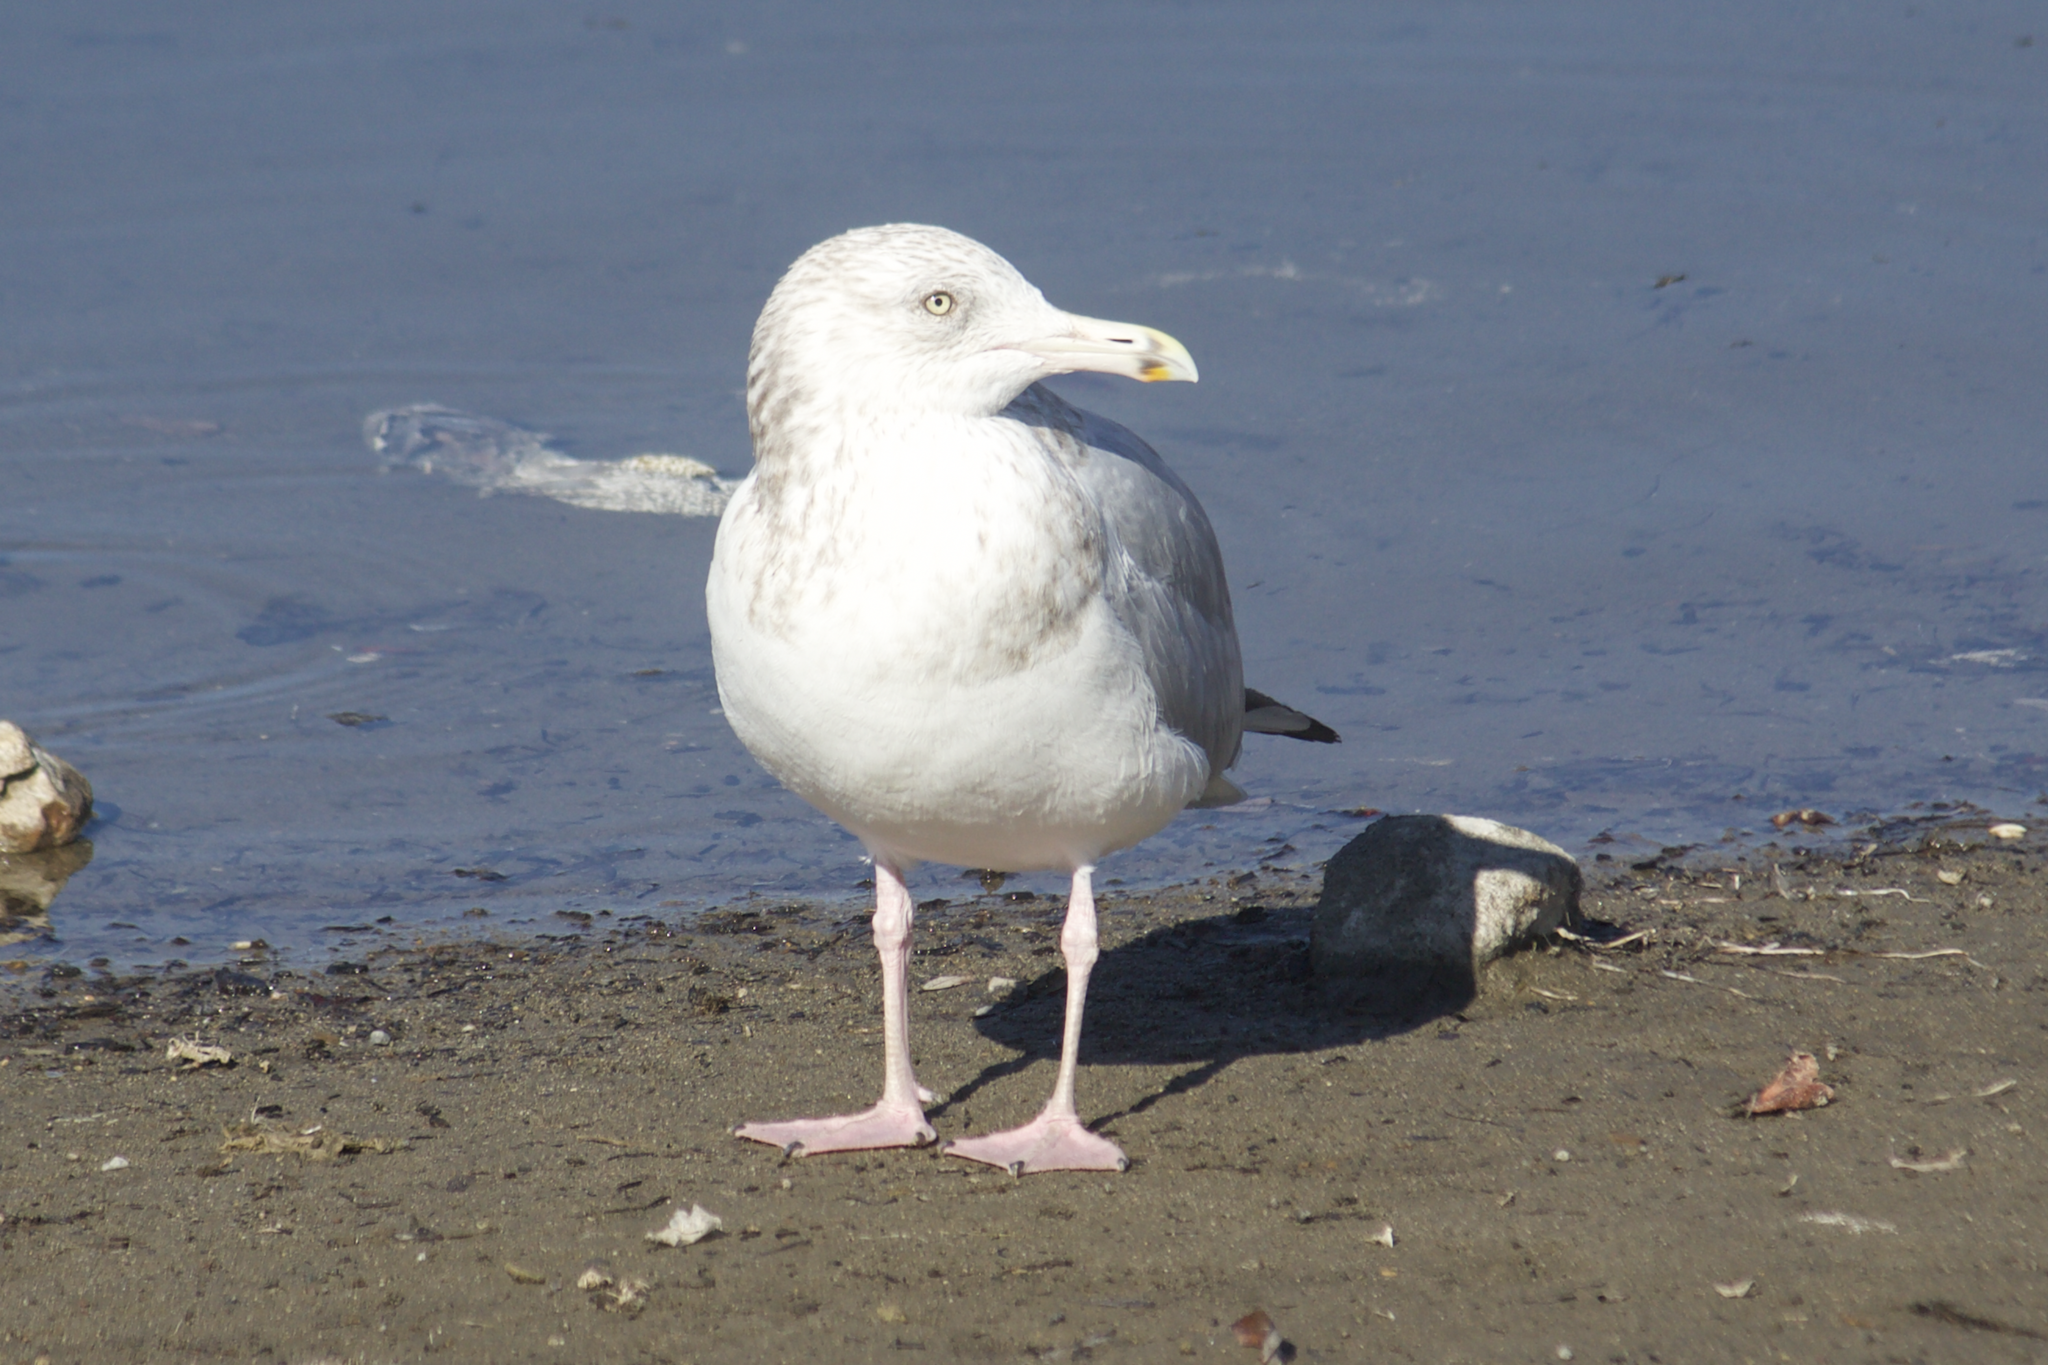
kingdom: Animalia
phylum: Chordata
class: Aves
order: Charadriiformes
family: Laridae
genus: Larus
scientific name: Larus argentatus
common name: Herring gull
